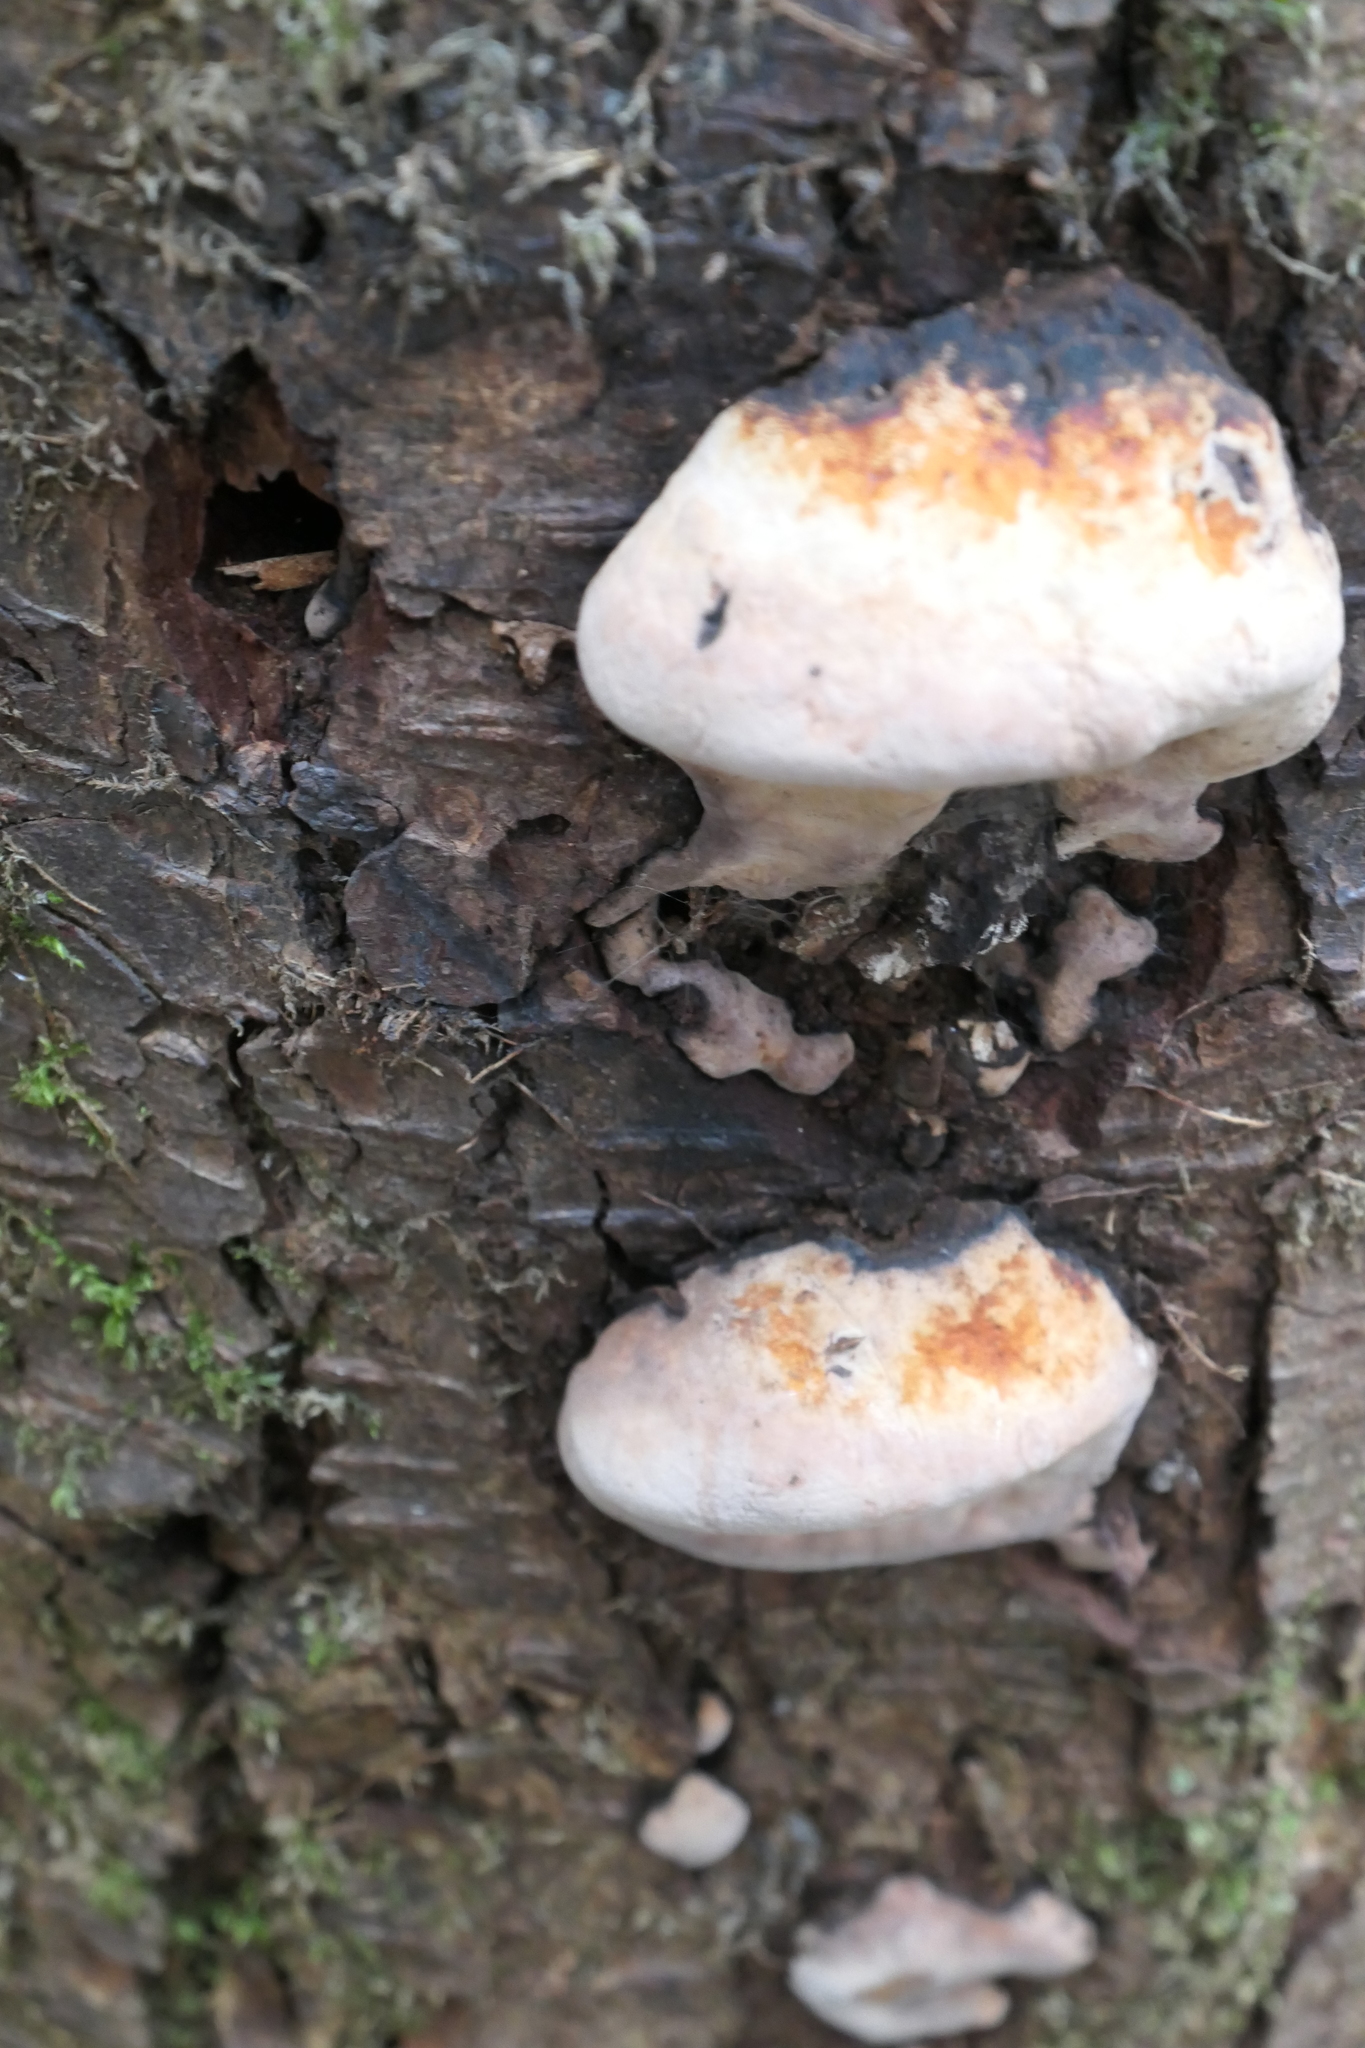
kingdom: Fungi
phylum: Basidiomycota
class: Agaricomycetes
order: Polyporales
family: Fomitopsidaceae
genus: Fomitopsis
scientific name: Fomitopsis mounceae
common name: Northern red belt
